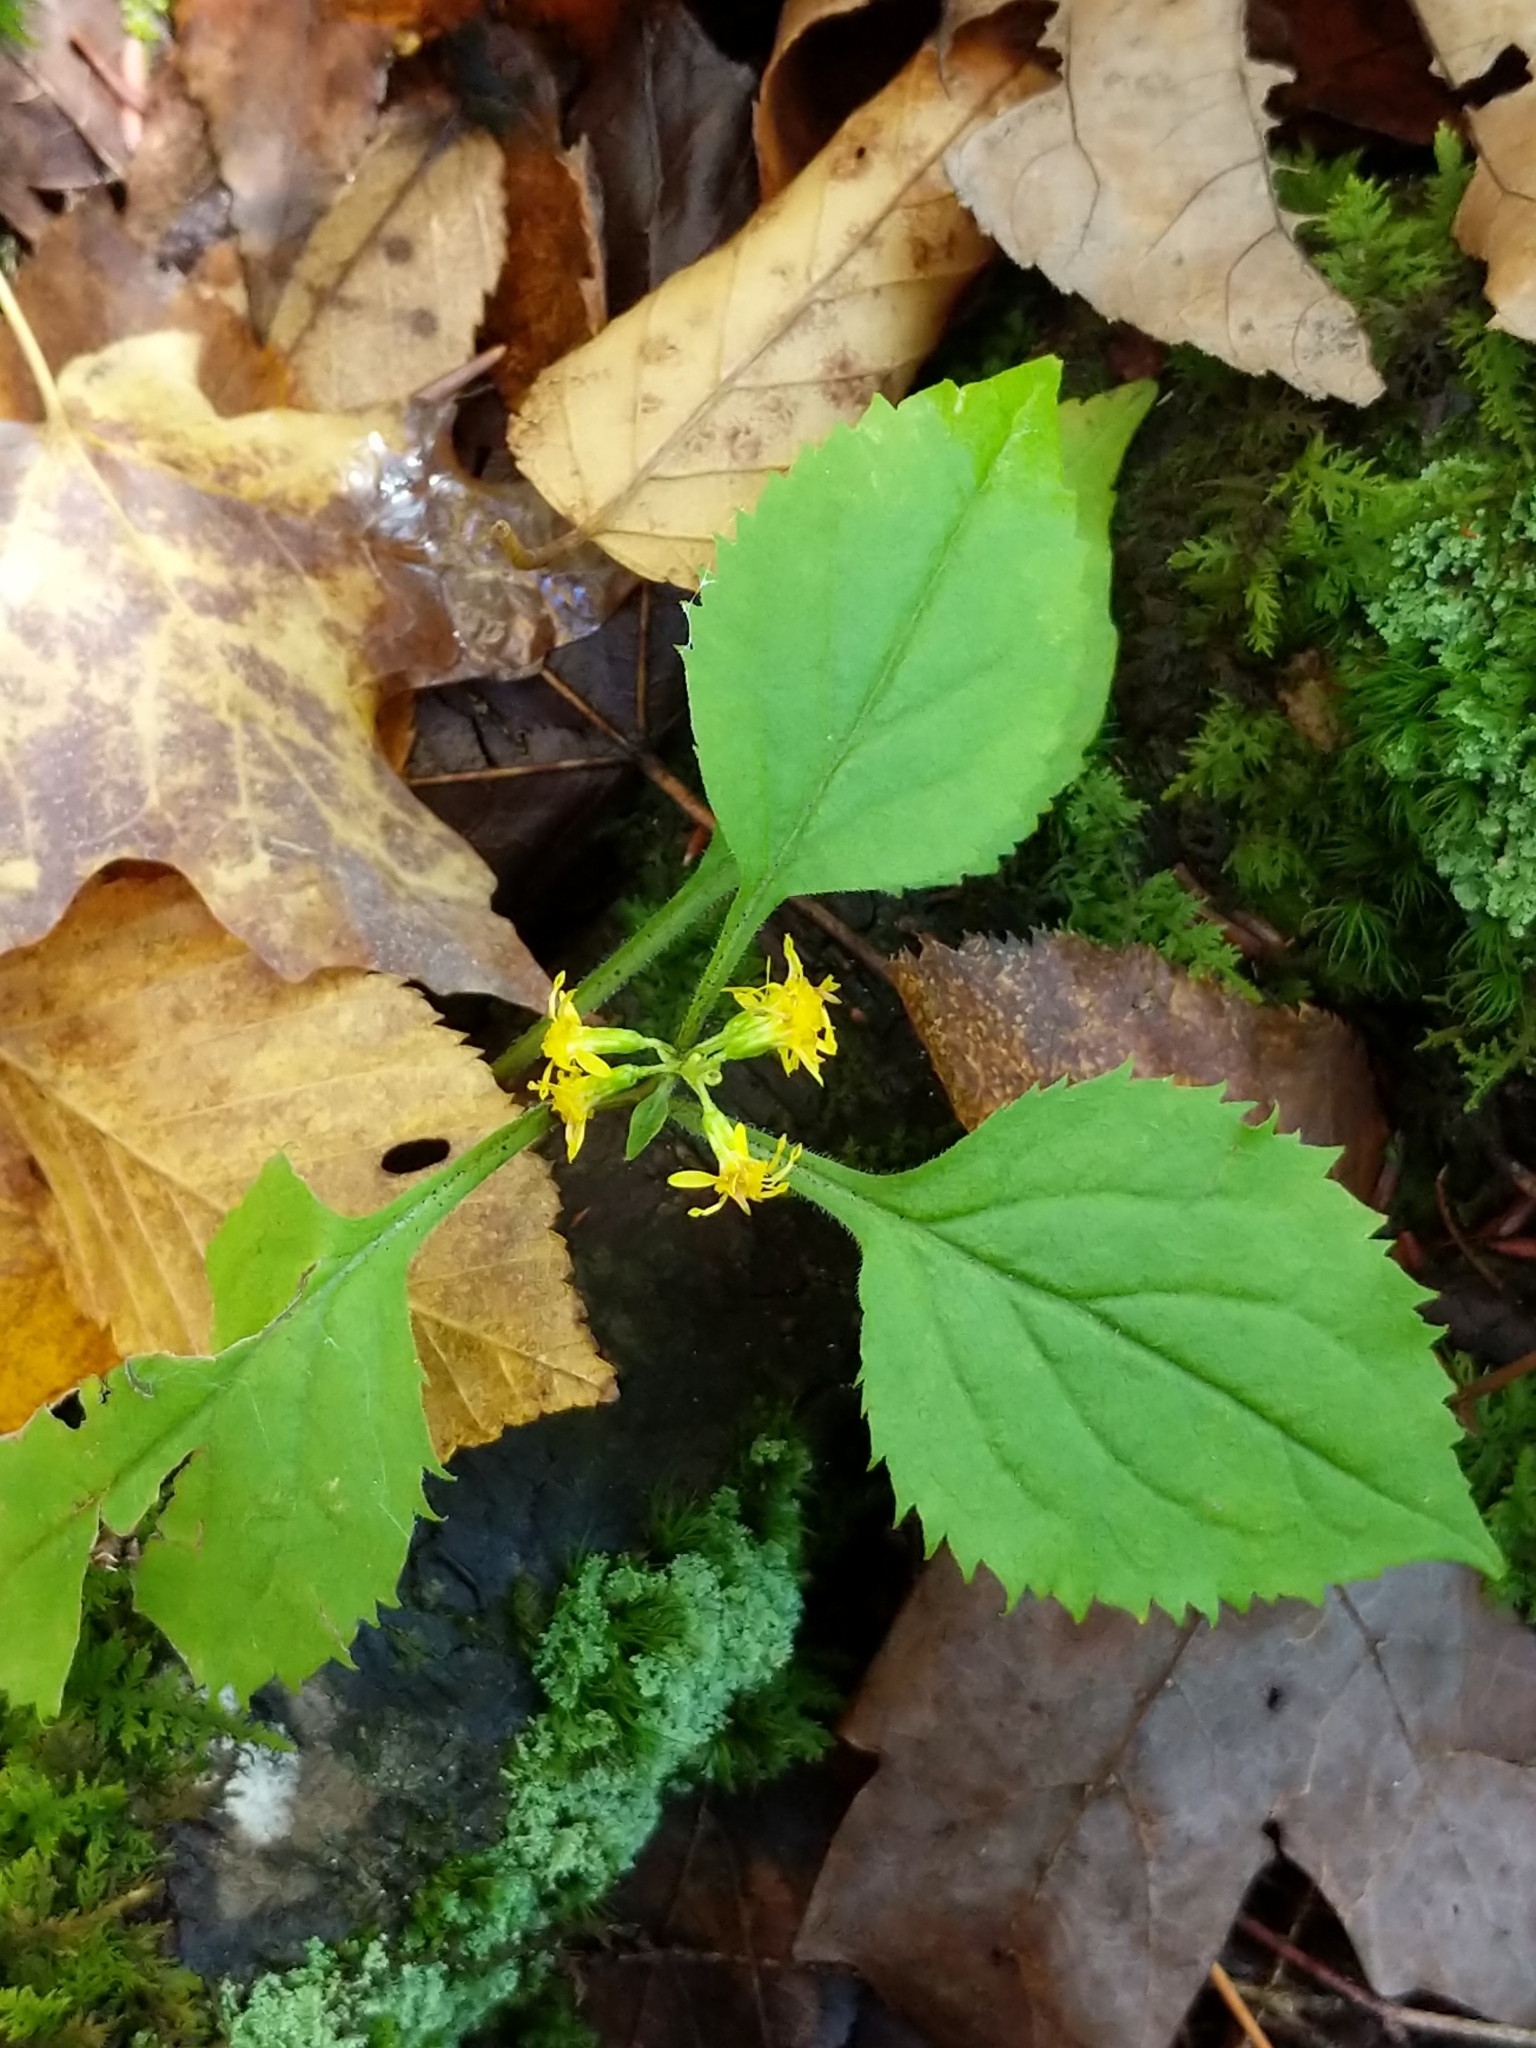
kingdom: Plantae
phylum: Tracheophyta
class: Magnoliopsida
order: Asterales
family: Asteraceae
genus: Solidago
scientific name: Solidago flexicaulis
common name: Zig-zag goldenrod
